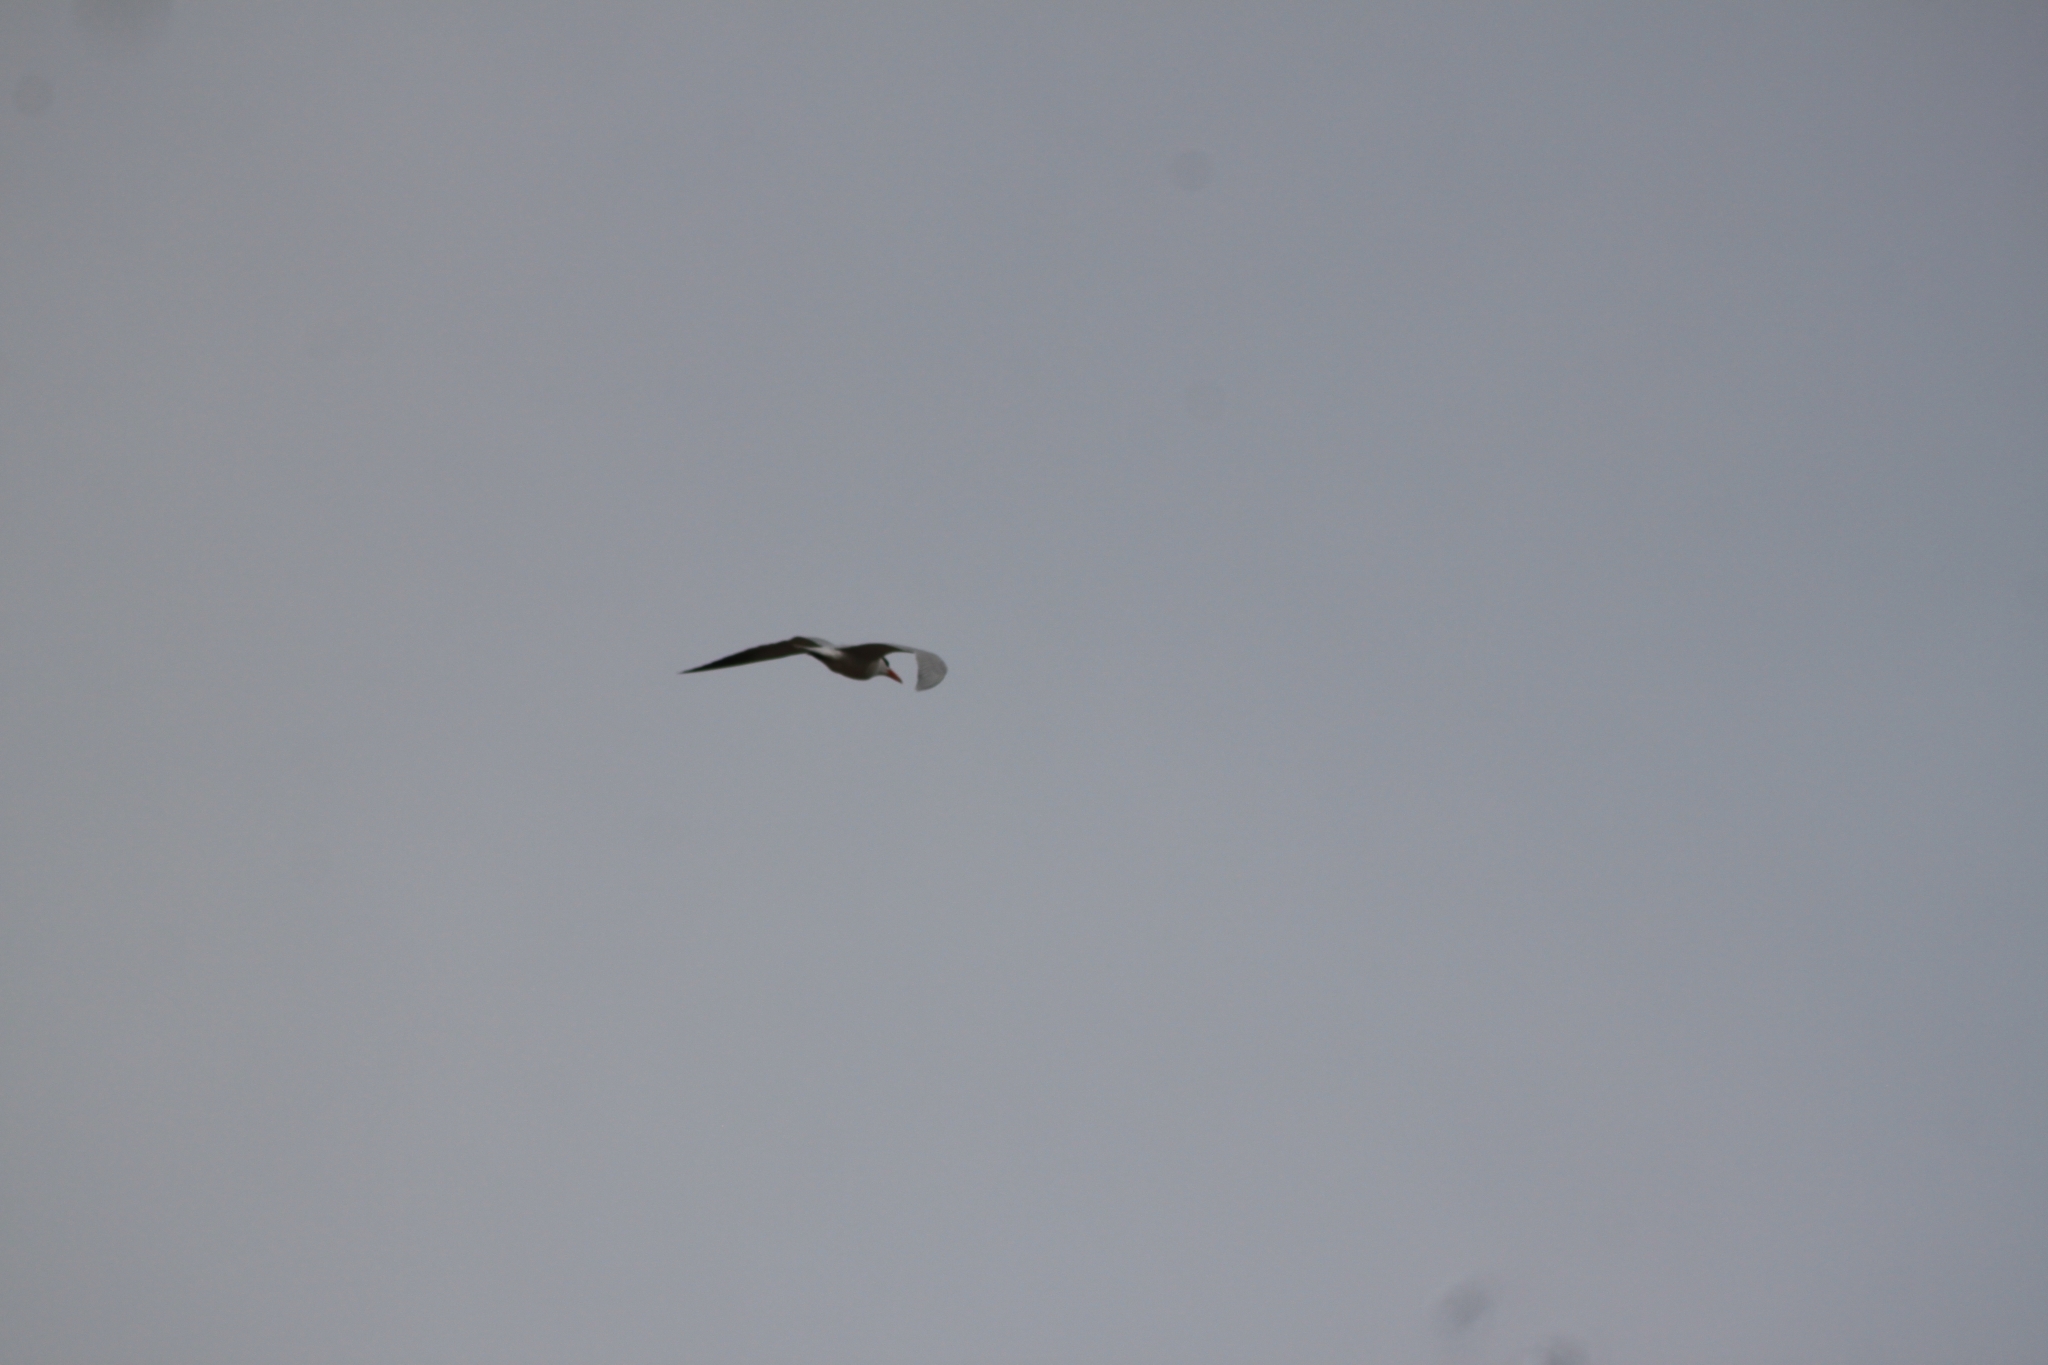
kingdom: Animalia
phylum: Chordata
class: Aves
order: Charadriiformes
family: Laridae
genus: Hydroprogne
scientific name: Hydroprogne caspia
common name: Caspian tern
